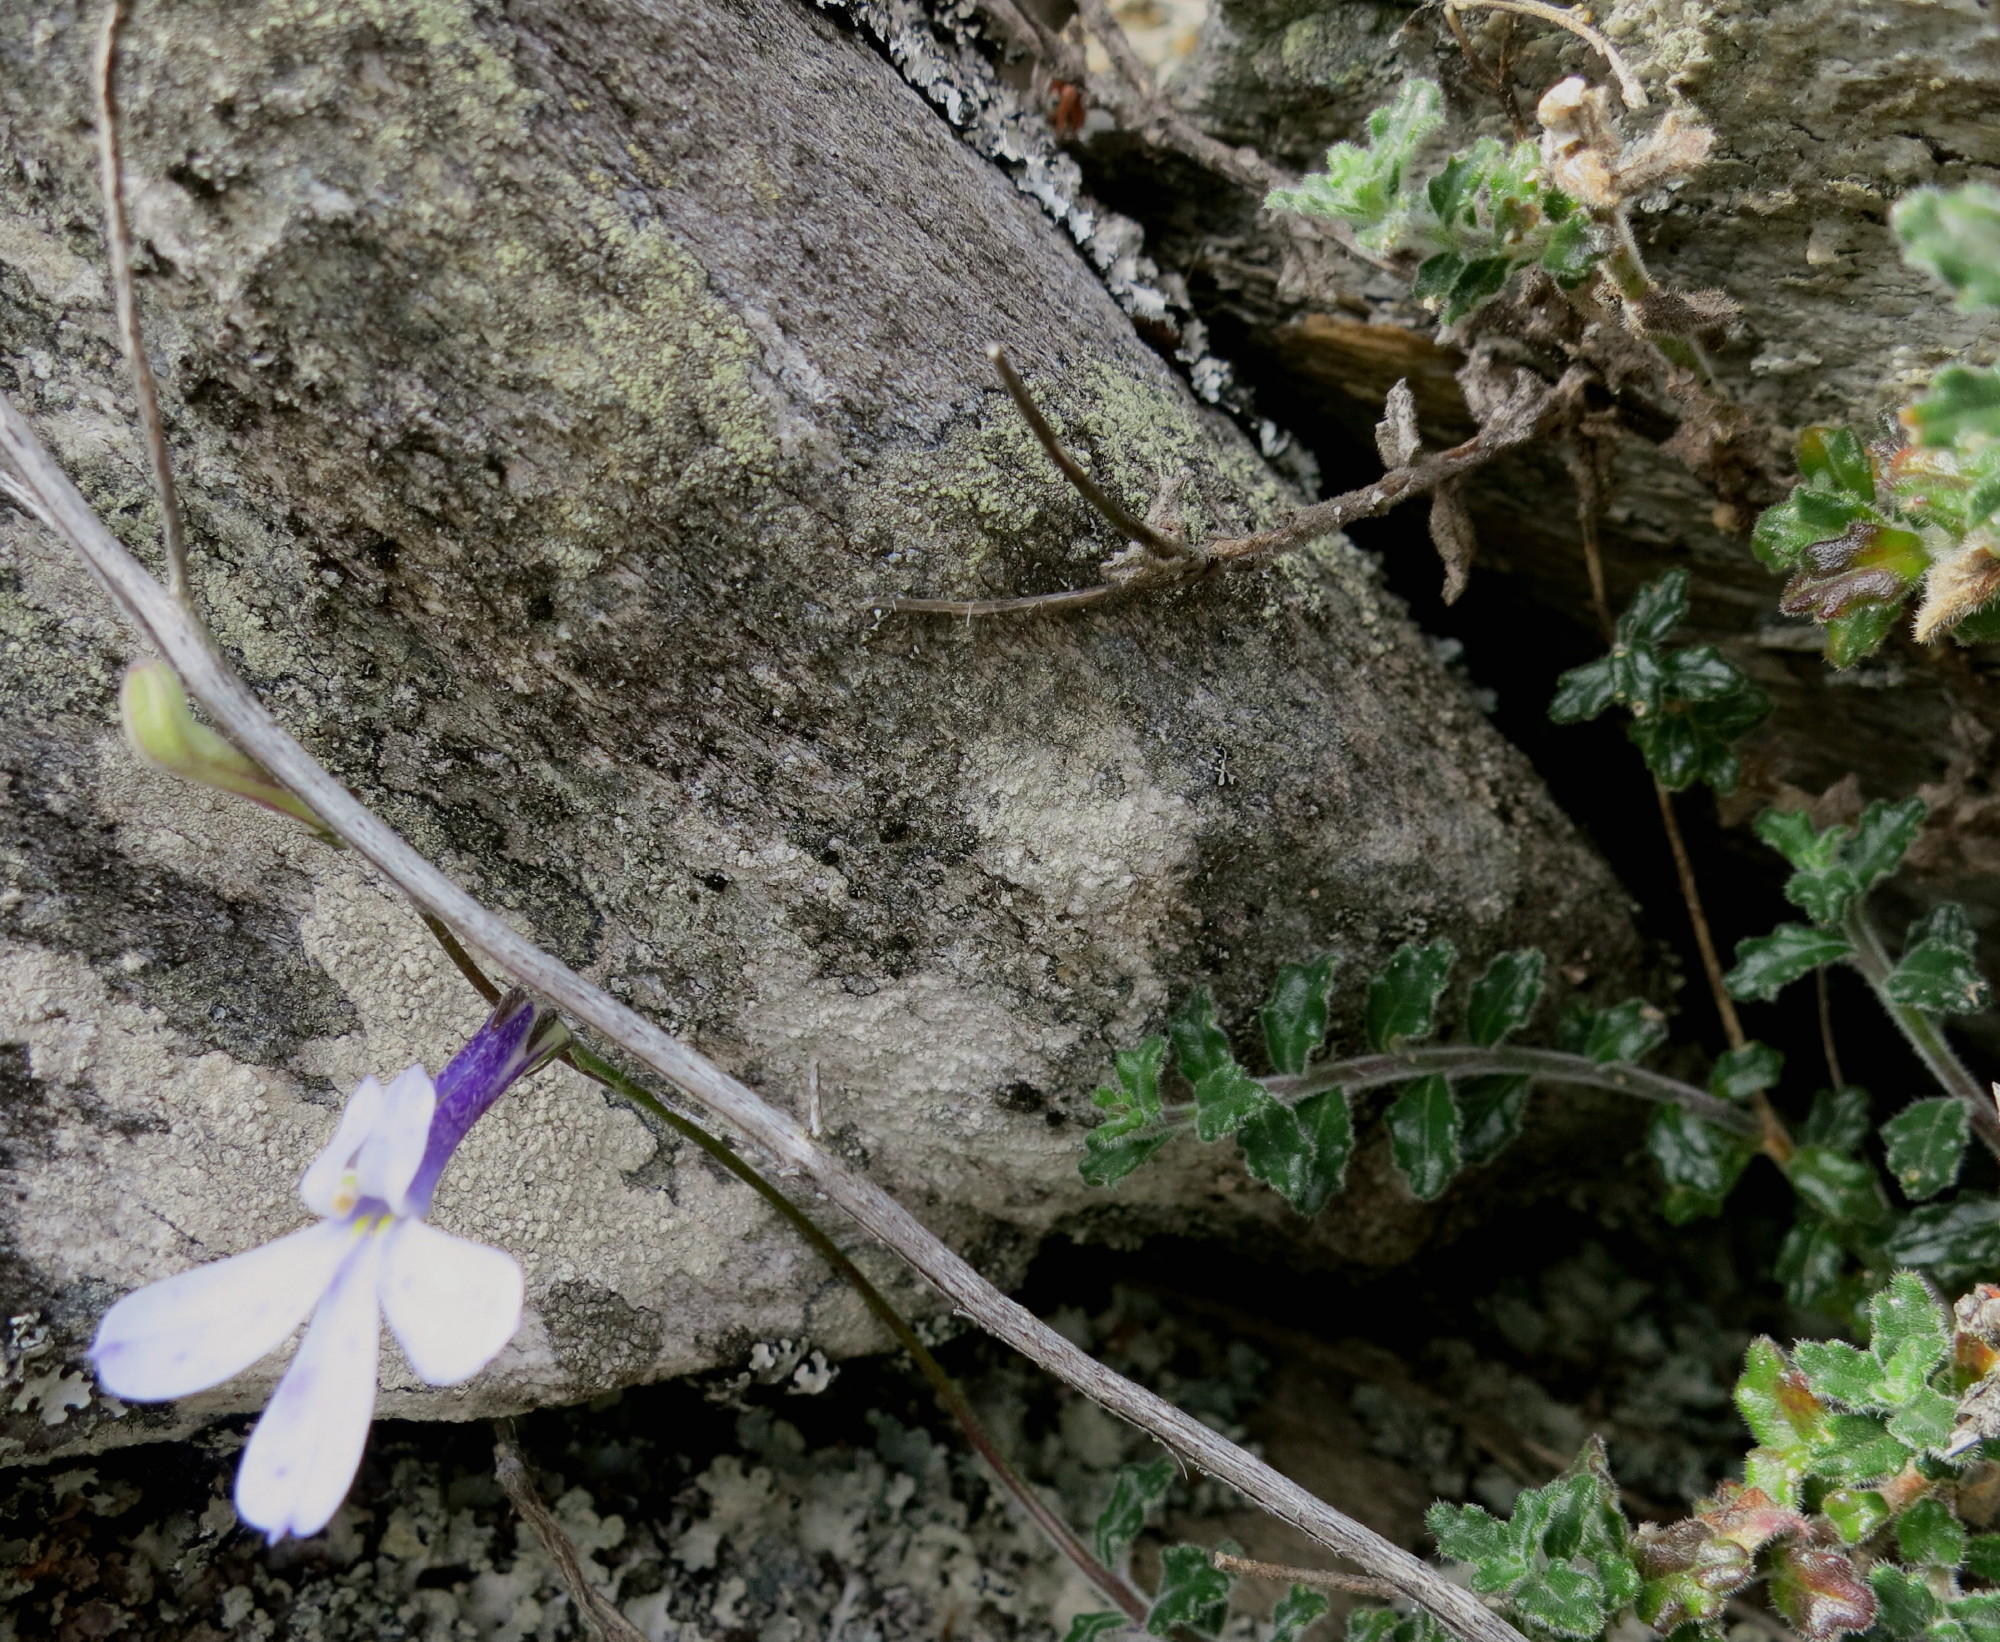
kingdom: Plantae
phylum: Tracheophyta
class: Magnoliopsida
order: Asterales
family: Campanulaceae
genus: Lobelia
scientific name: Lobelia dichroma
